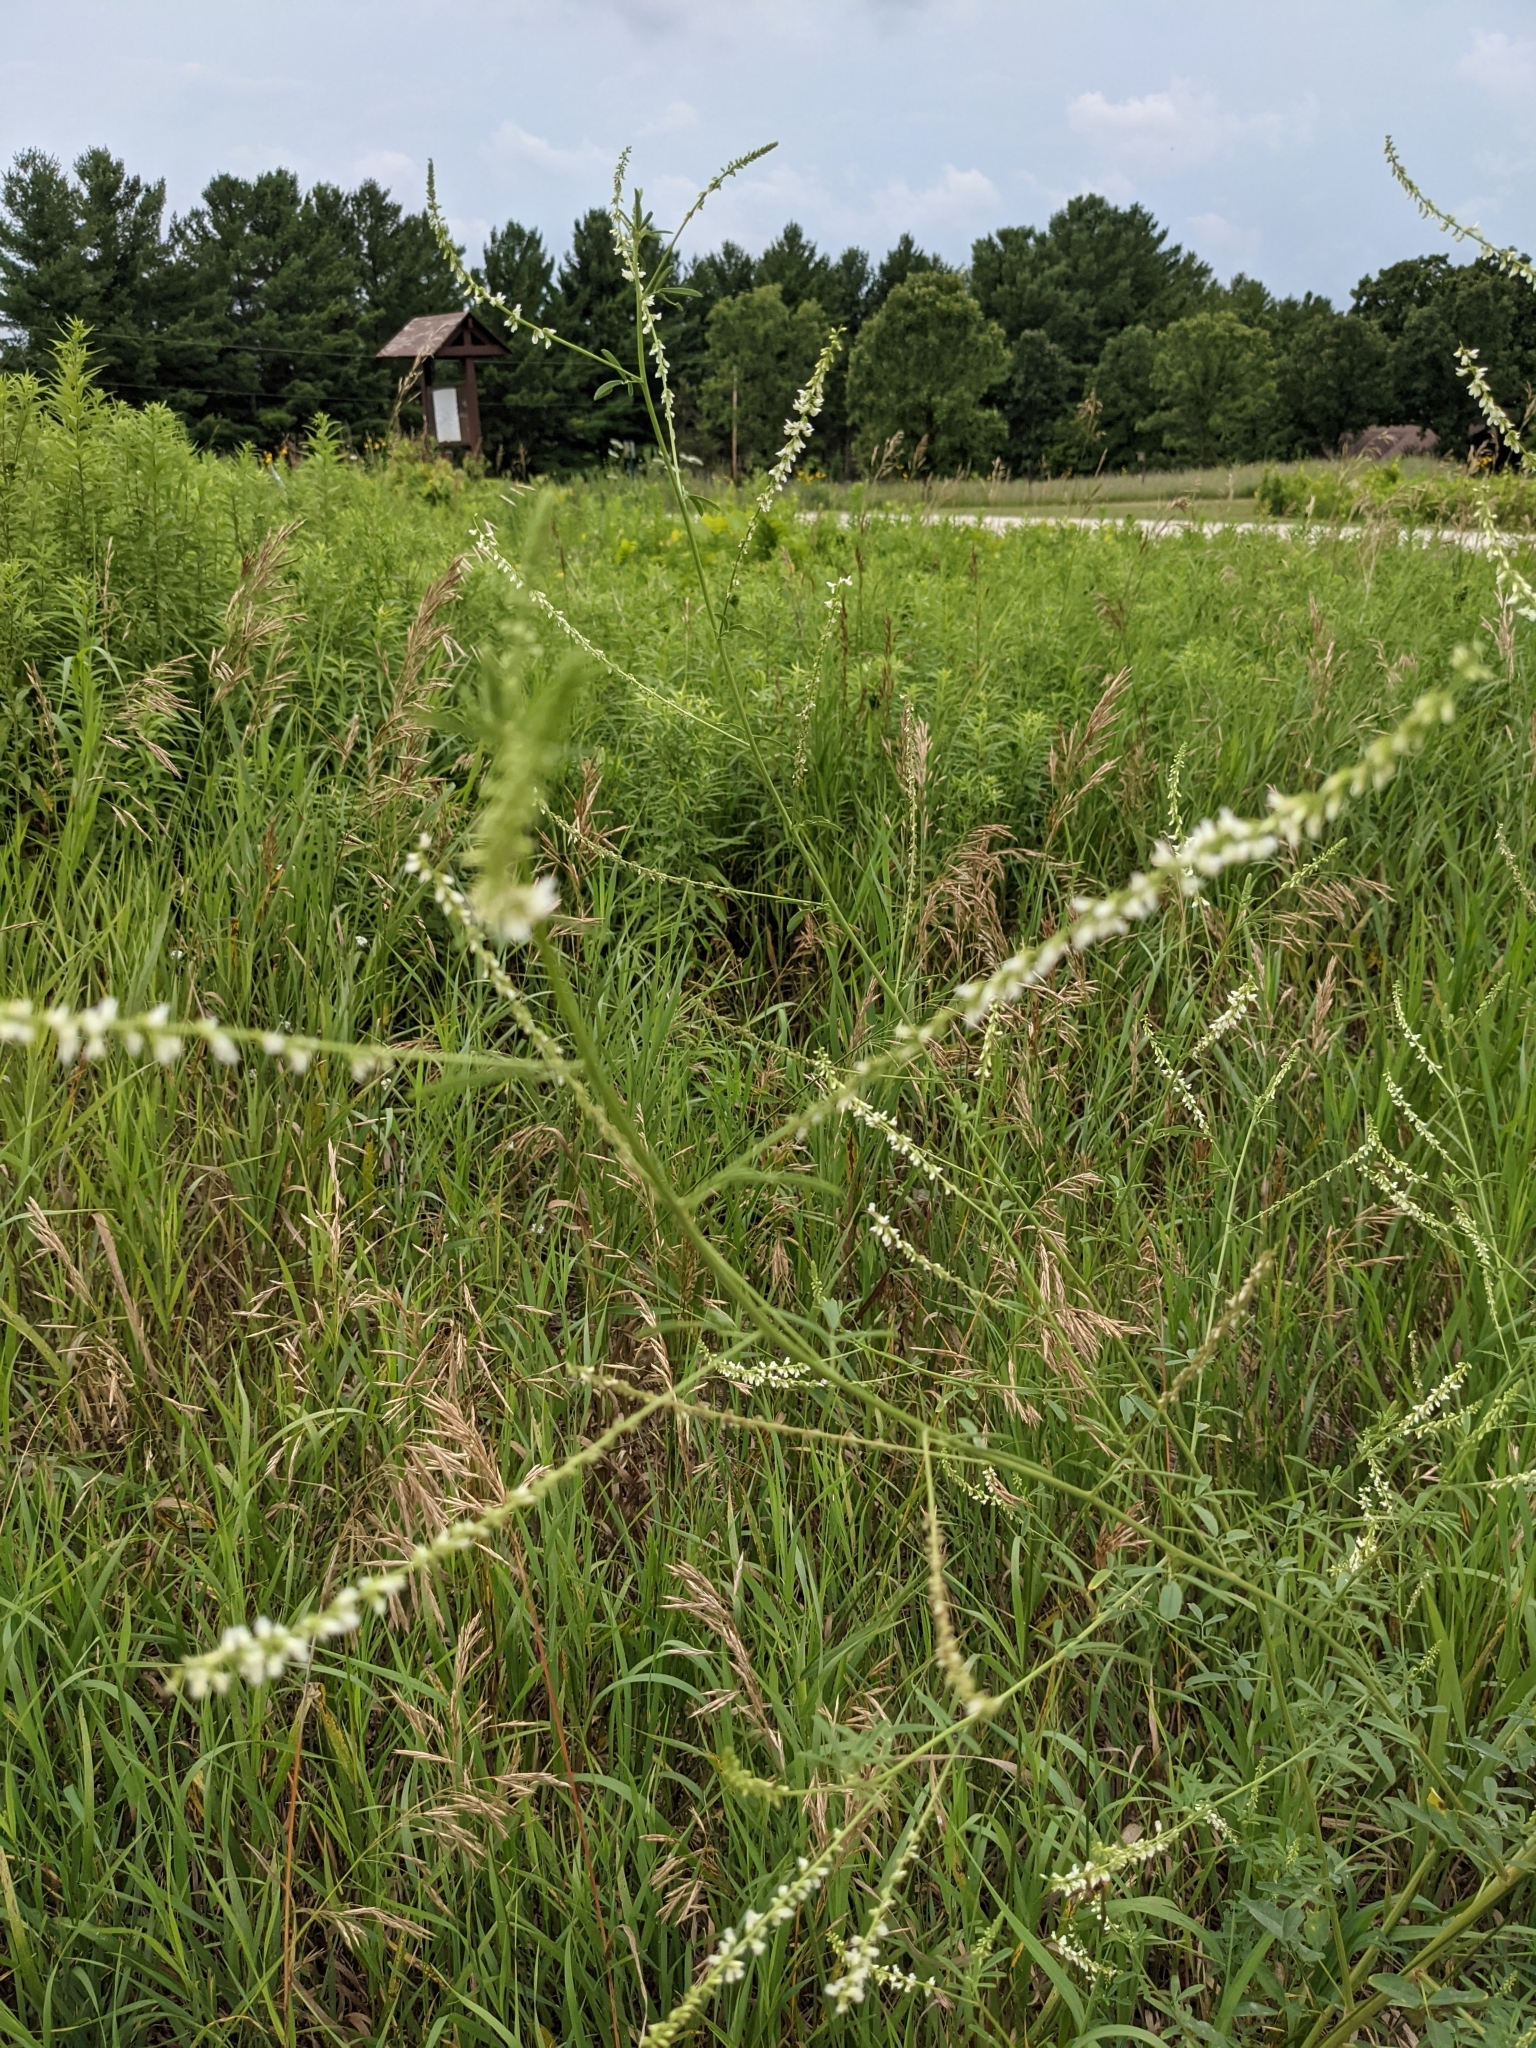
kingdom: Plantae
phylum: Tracheophyta
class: Magnoliopsida
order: Fabales
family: Fabaceae
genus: Melilotus
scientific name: Melilotus albus
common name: White melilot
